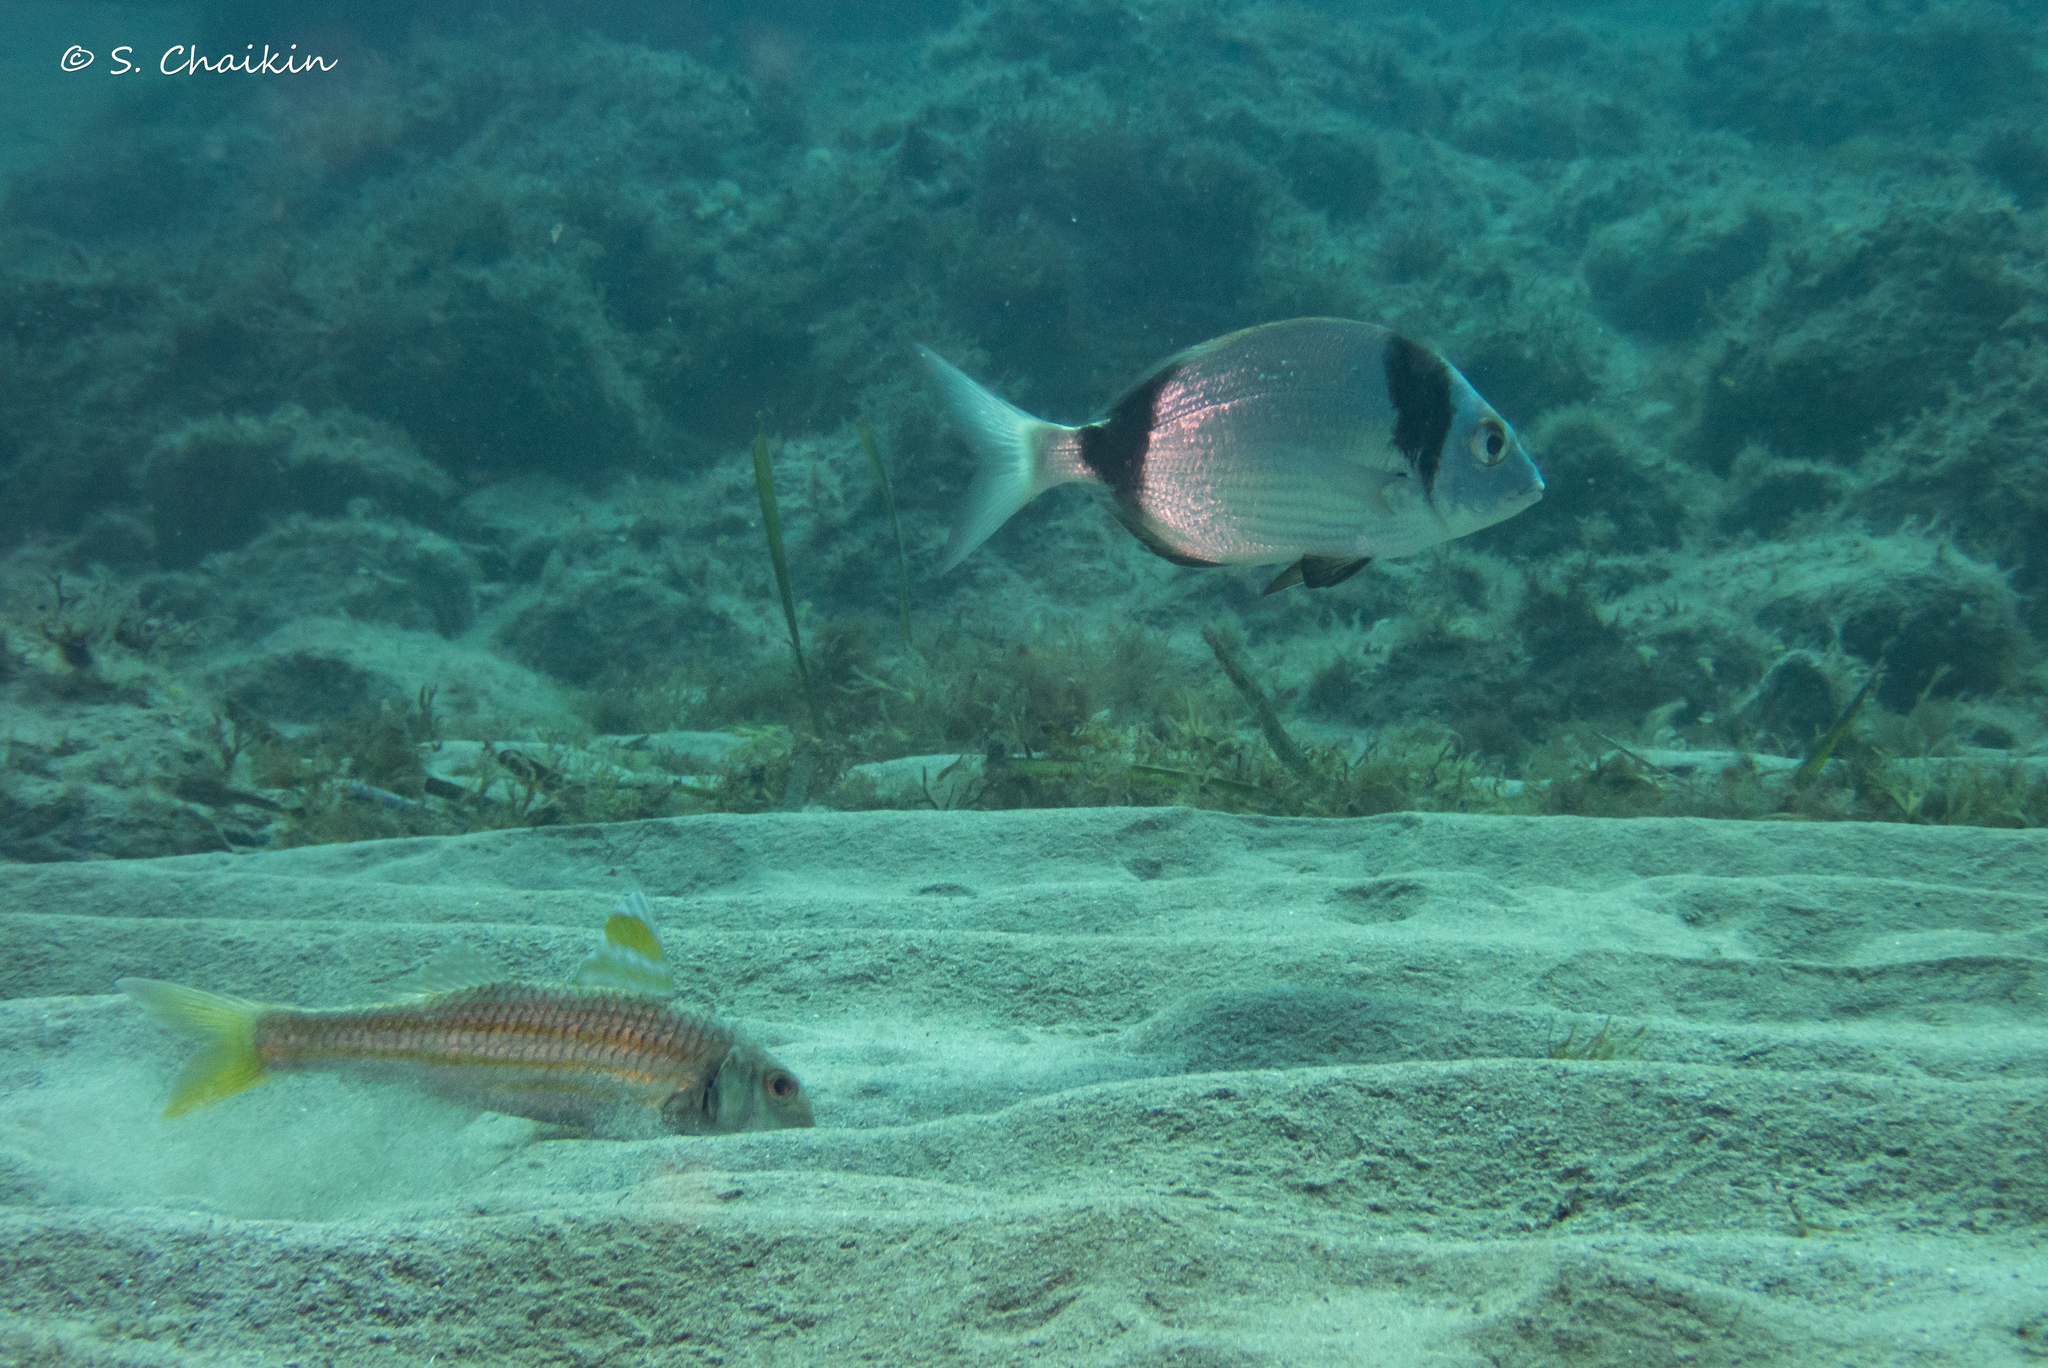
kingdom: Animalia
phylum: Chordata
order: Perciformes
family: Sparidae
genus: Diplodus
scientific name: Diplodus vulgaris
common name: Common two-banded seabream
